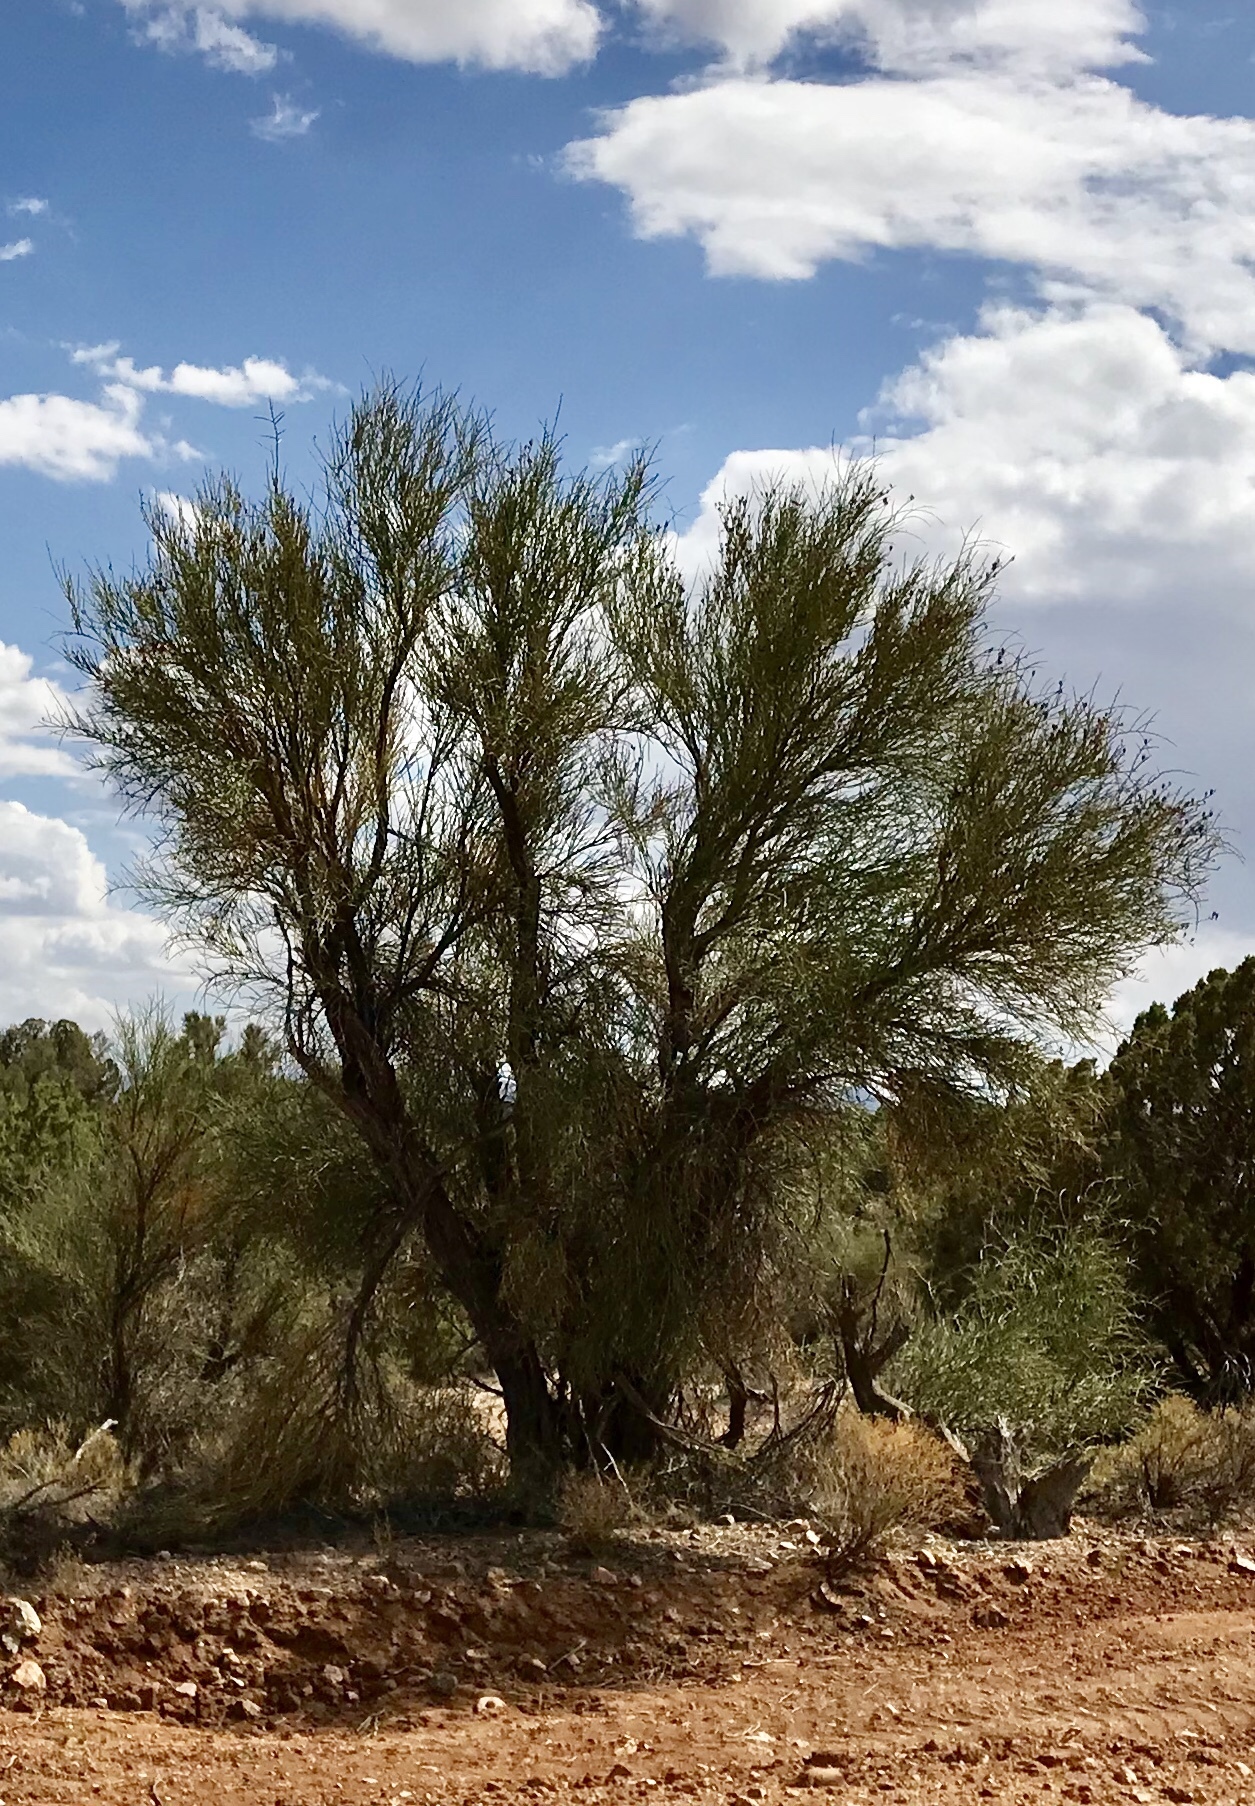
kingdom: Plantae
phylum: Tracheophyta
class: Magnoliopsida
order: Celastrales
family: Celastraceae
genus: Canotia
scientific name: Canotia holacantha
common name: Crucifixion thorns
